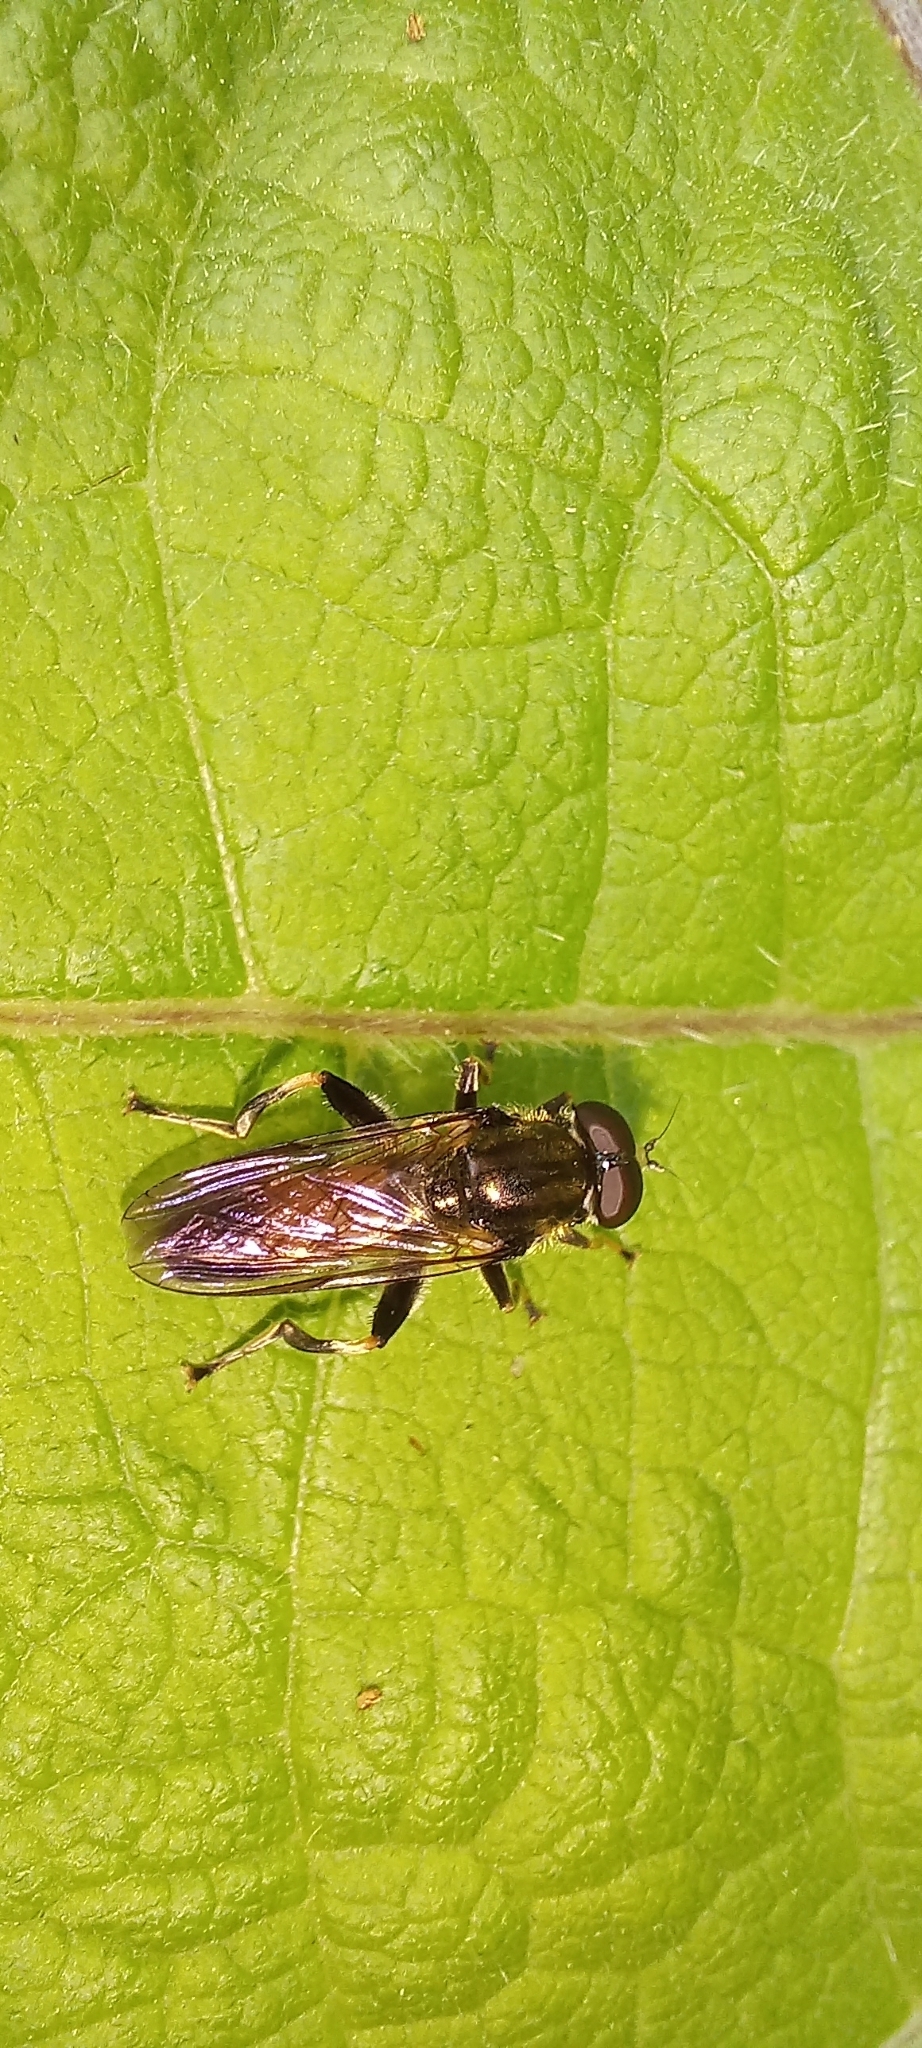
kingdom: Animalia
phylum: Arthropoda
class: Insecta
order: Diptera
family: Syrphidae
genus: Xylota
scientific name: Xylota segnis
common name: Brown-toed forest fly
